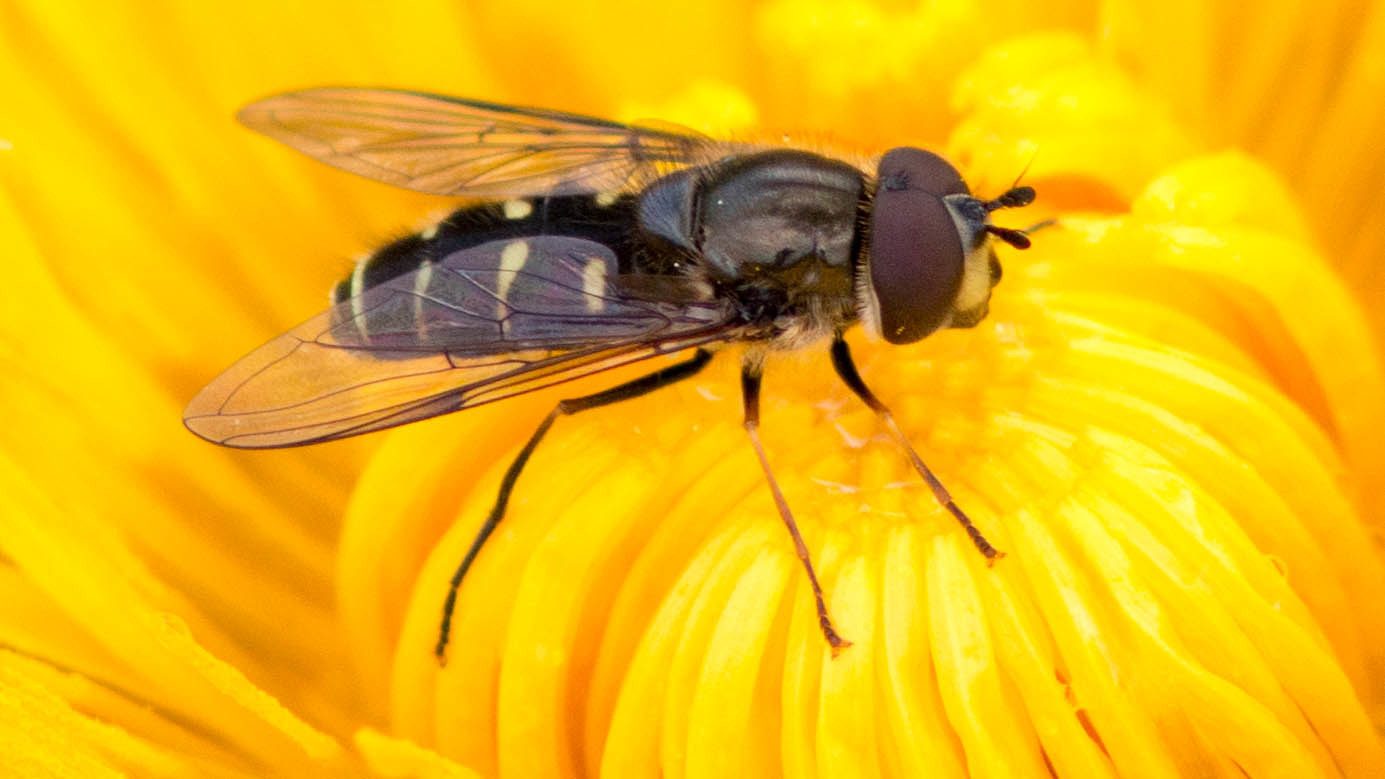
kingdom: Animalia
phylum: Arthropoda
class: Insecta
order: Diptera
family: Syrphidae
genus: Dasysyrphus
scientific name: Dasysyrphus pinastri
